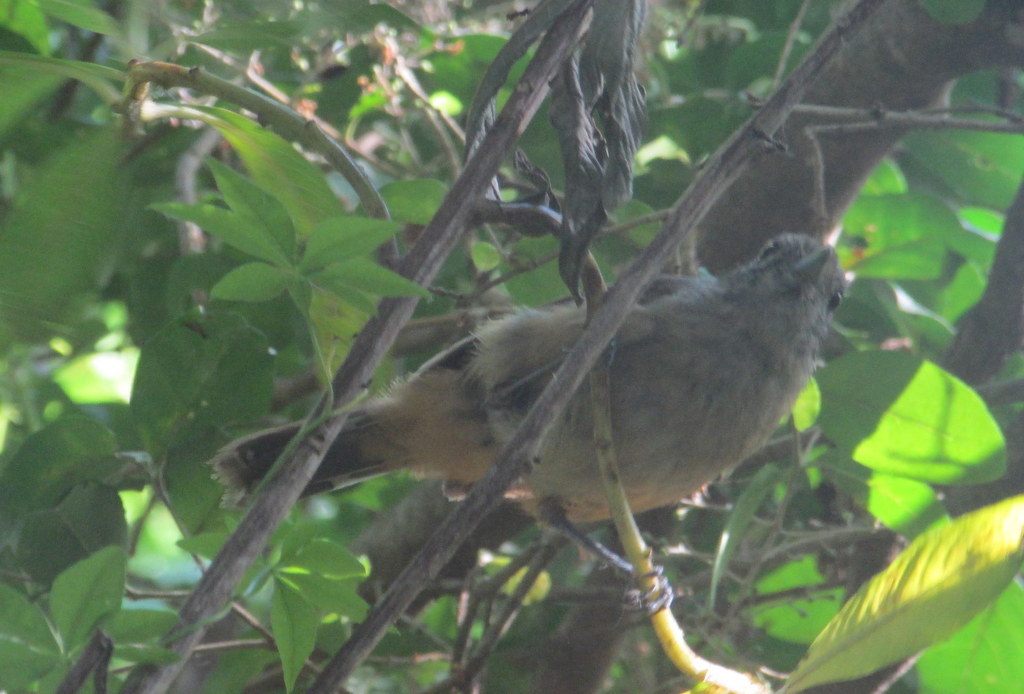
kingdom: Animalia
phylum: Chordata
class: Aves
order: Passeriformes
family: Thamnophilidae
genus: Thamnophilus
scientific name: Thamnophilus caerulescens
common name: Variable antshrike
